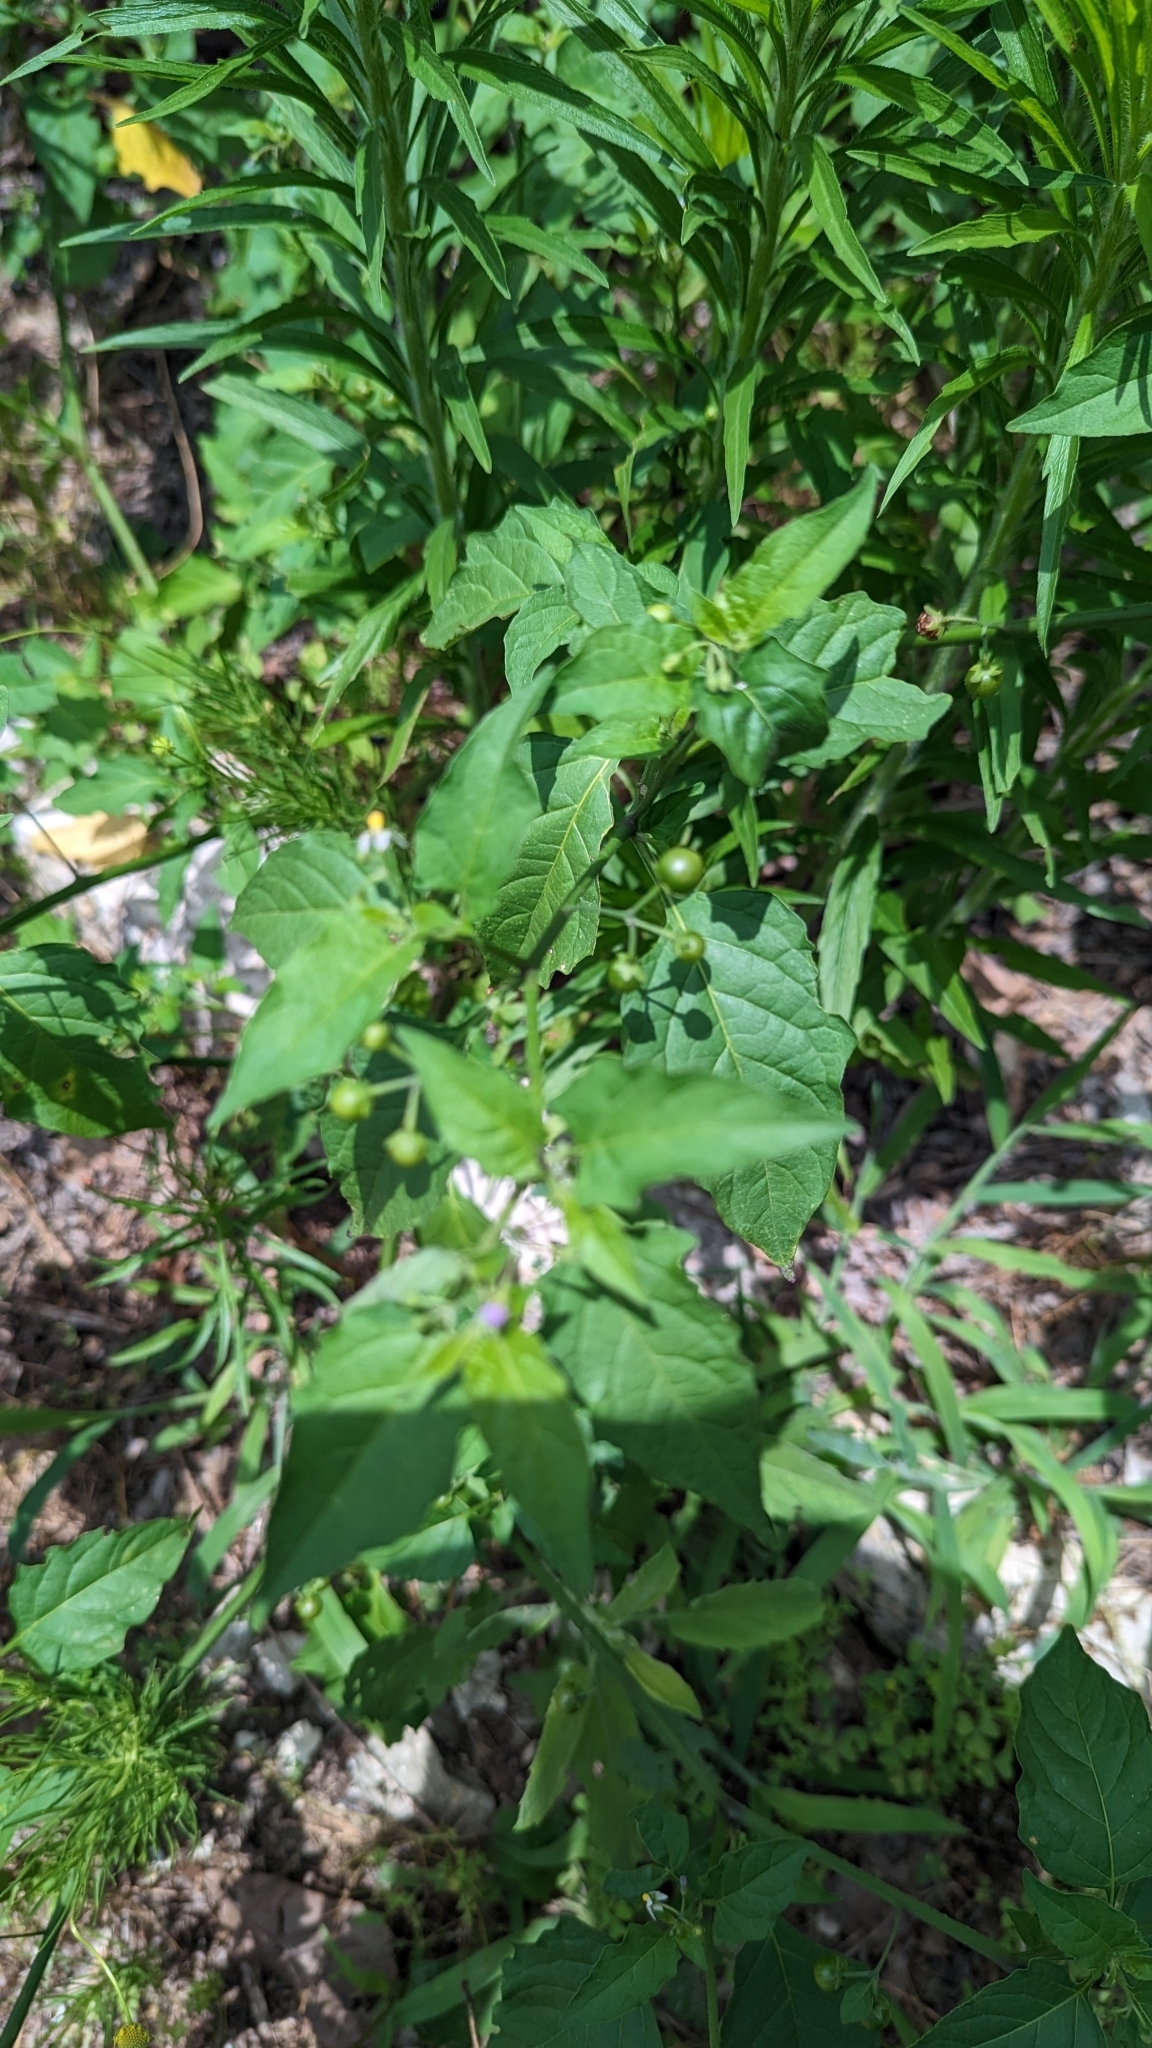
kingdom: Plantae
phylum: Tracheophyta
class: Magnoliopsida
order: Solanales
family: Solanaceae
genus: Solanum
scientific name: Solanum emulans
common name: Eastern black nightshade
